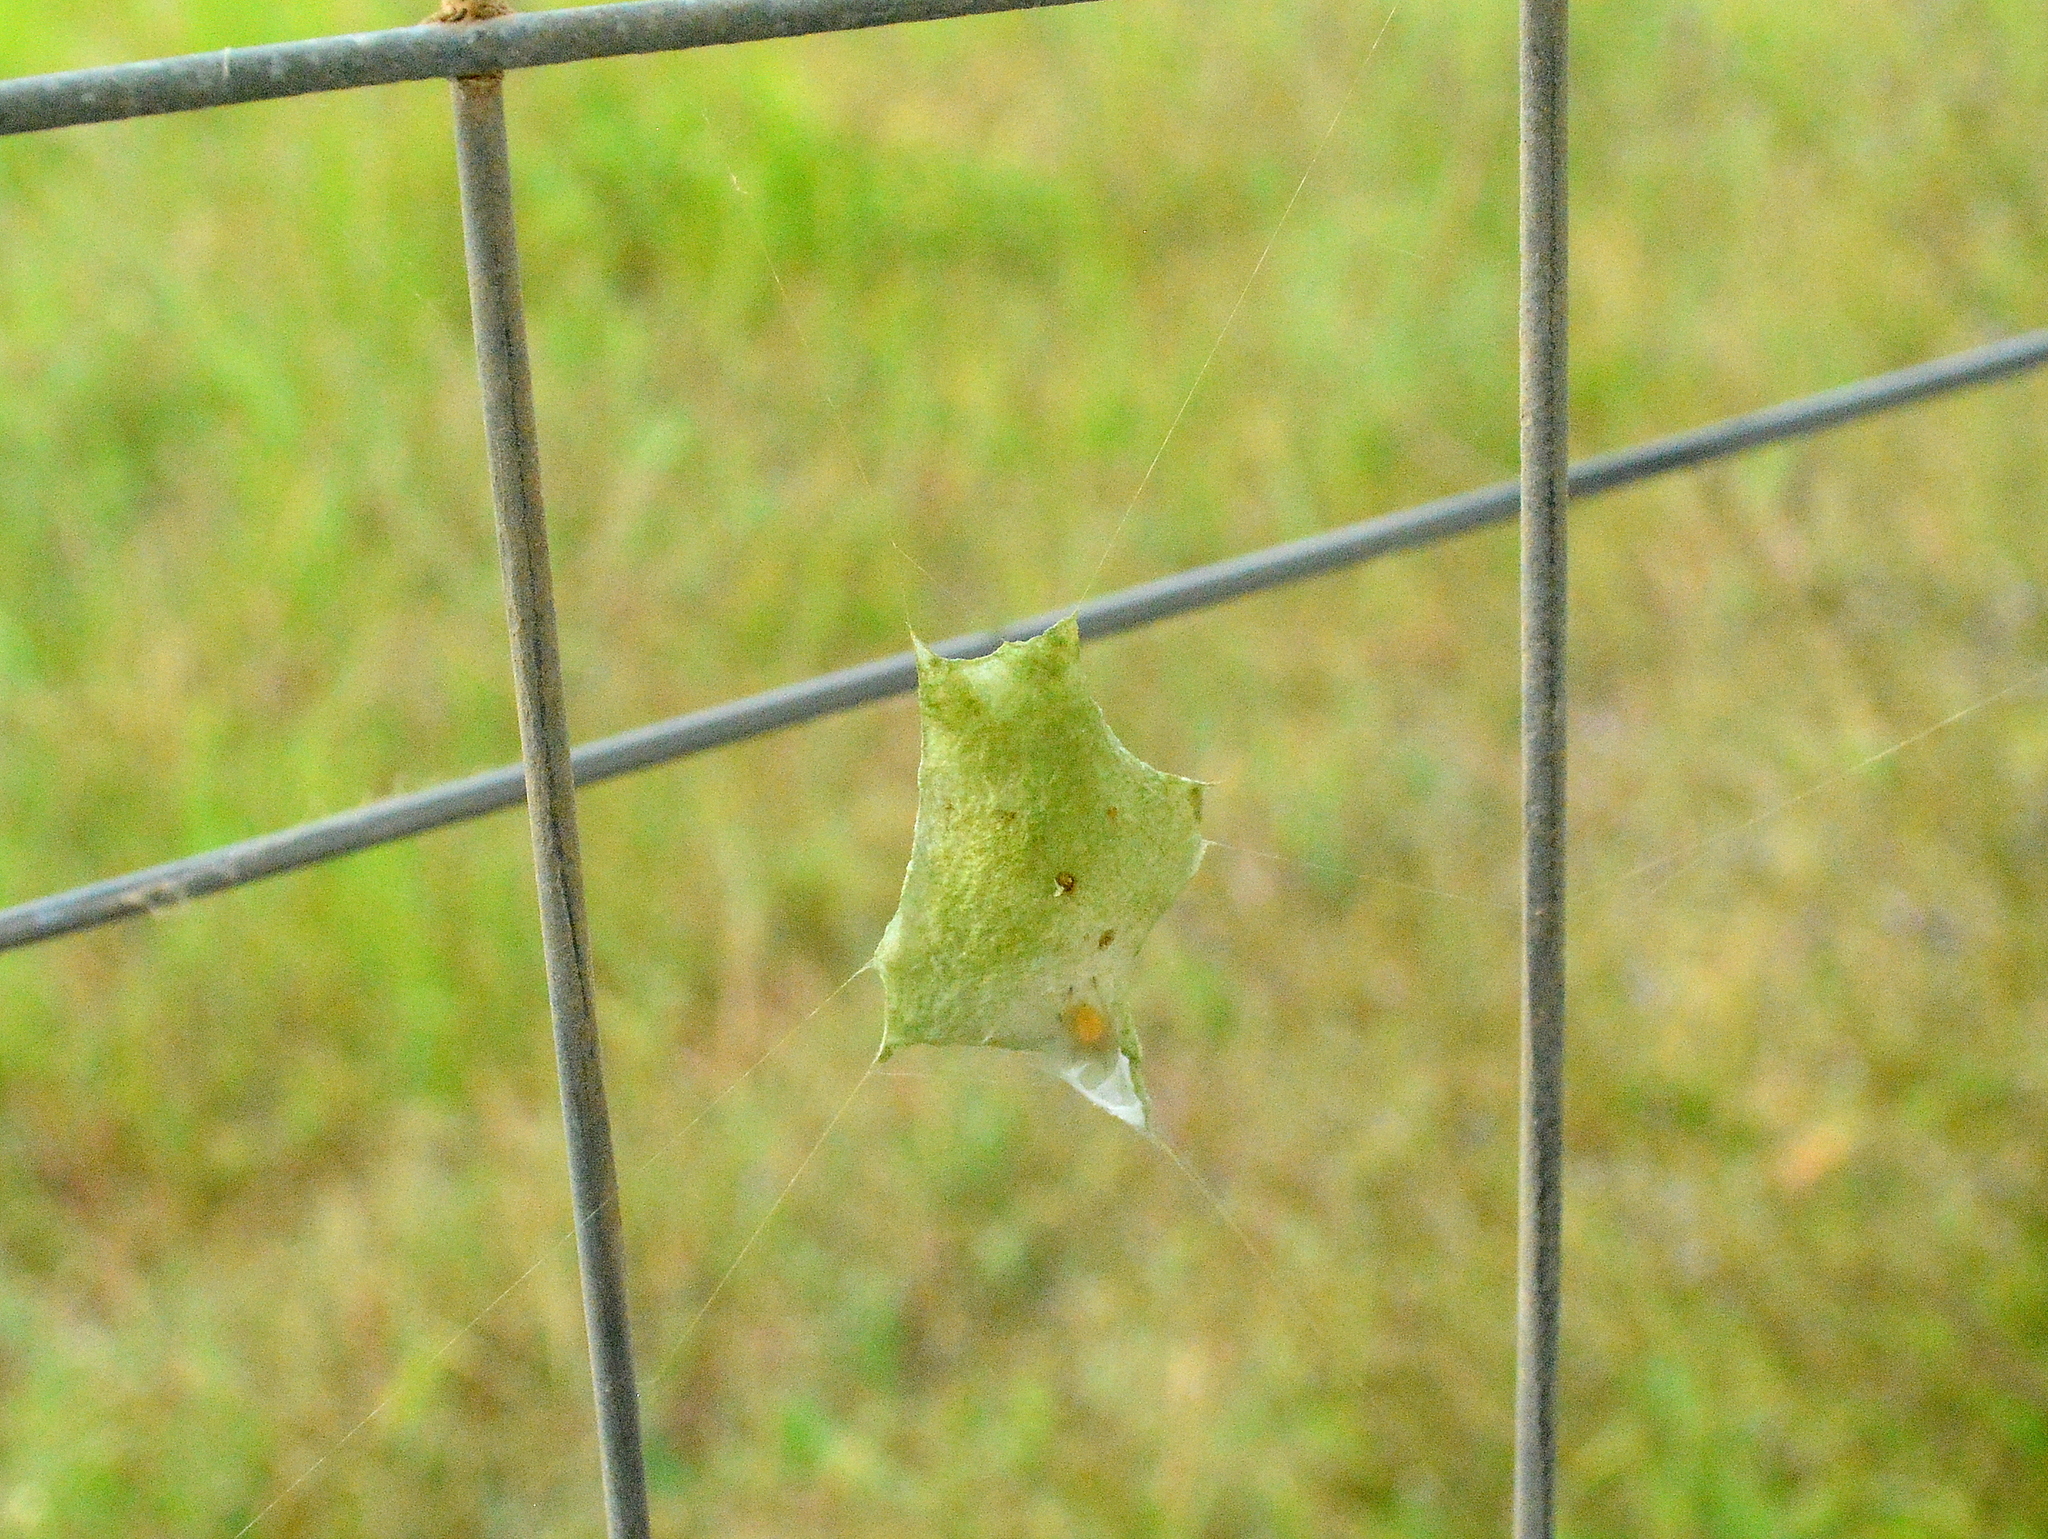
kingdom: Animalia
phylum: Arthropoda
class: Arachnida
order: Araneae
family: Araneidae
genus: Argiope
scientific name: Argiope argentata
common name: Orb weavers
